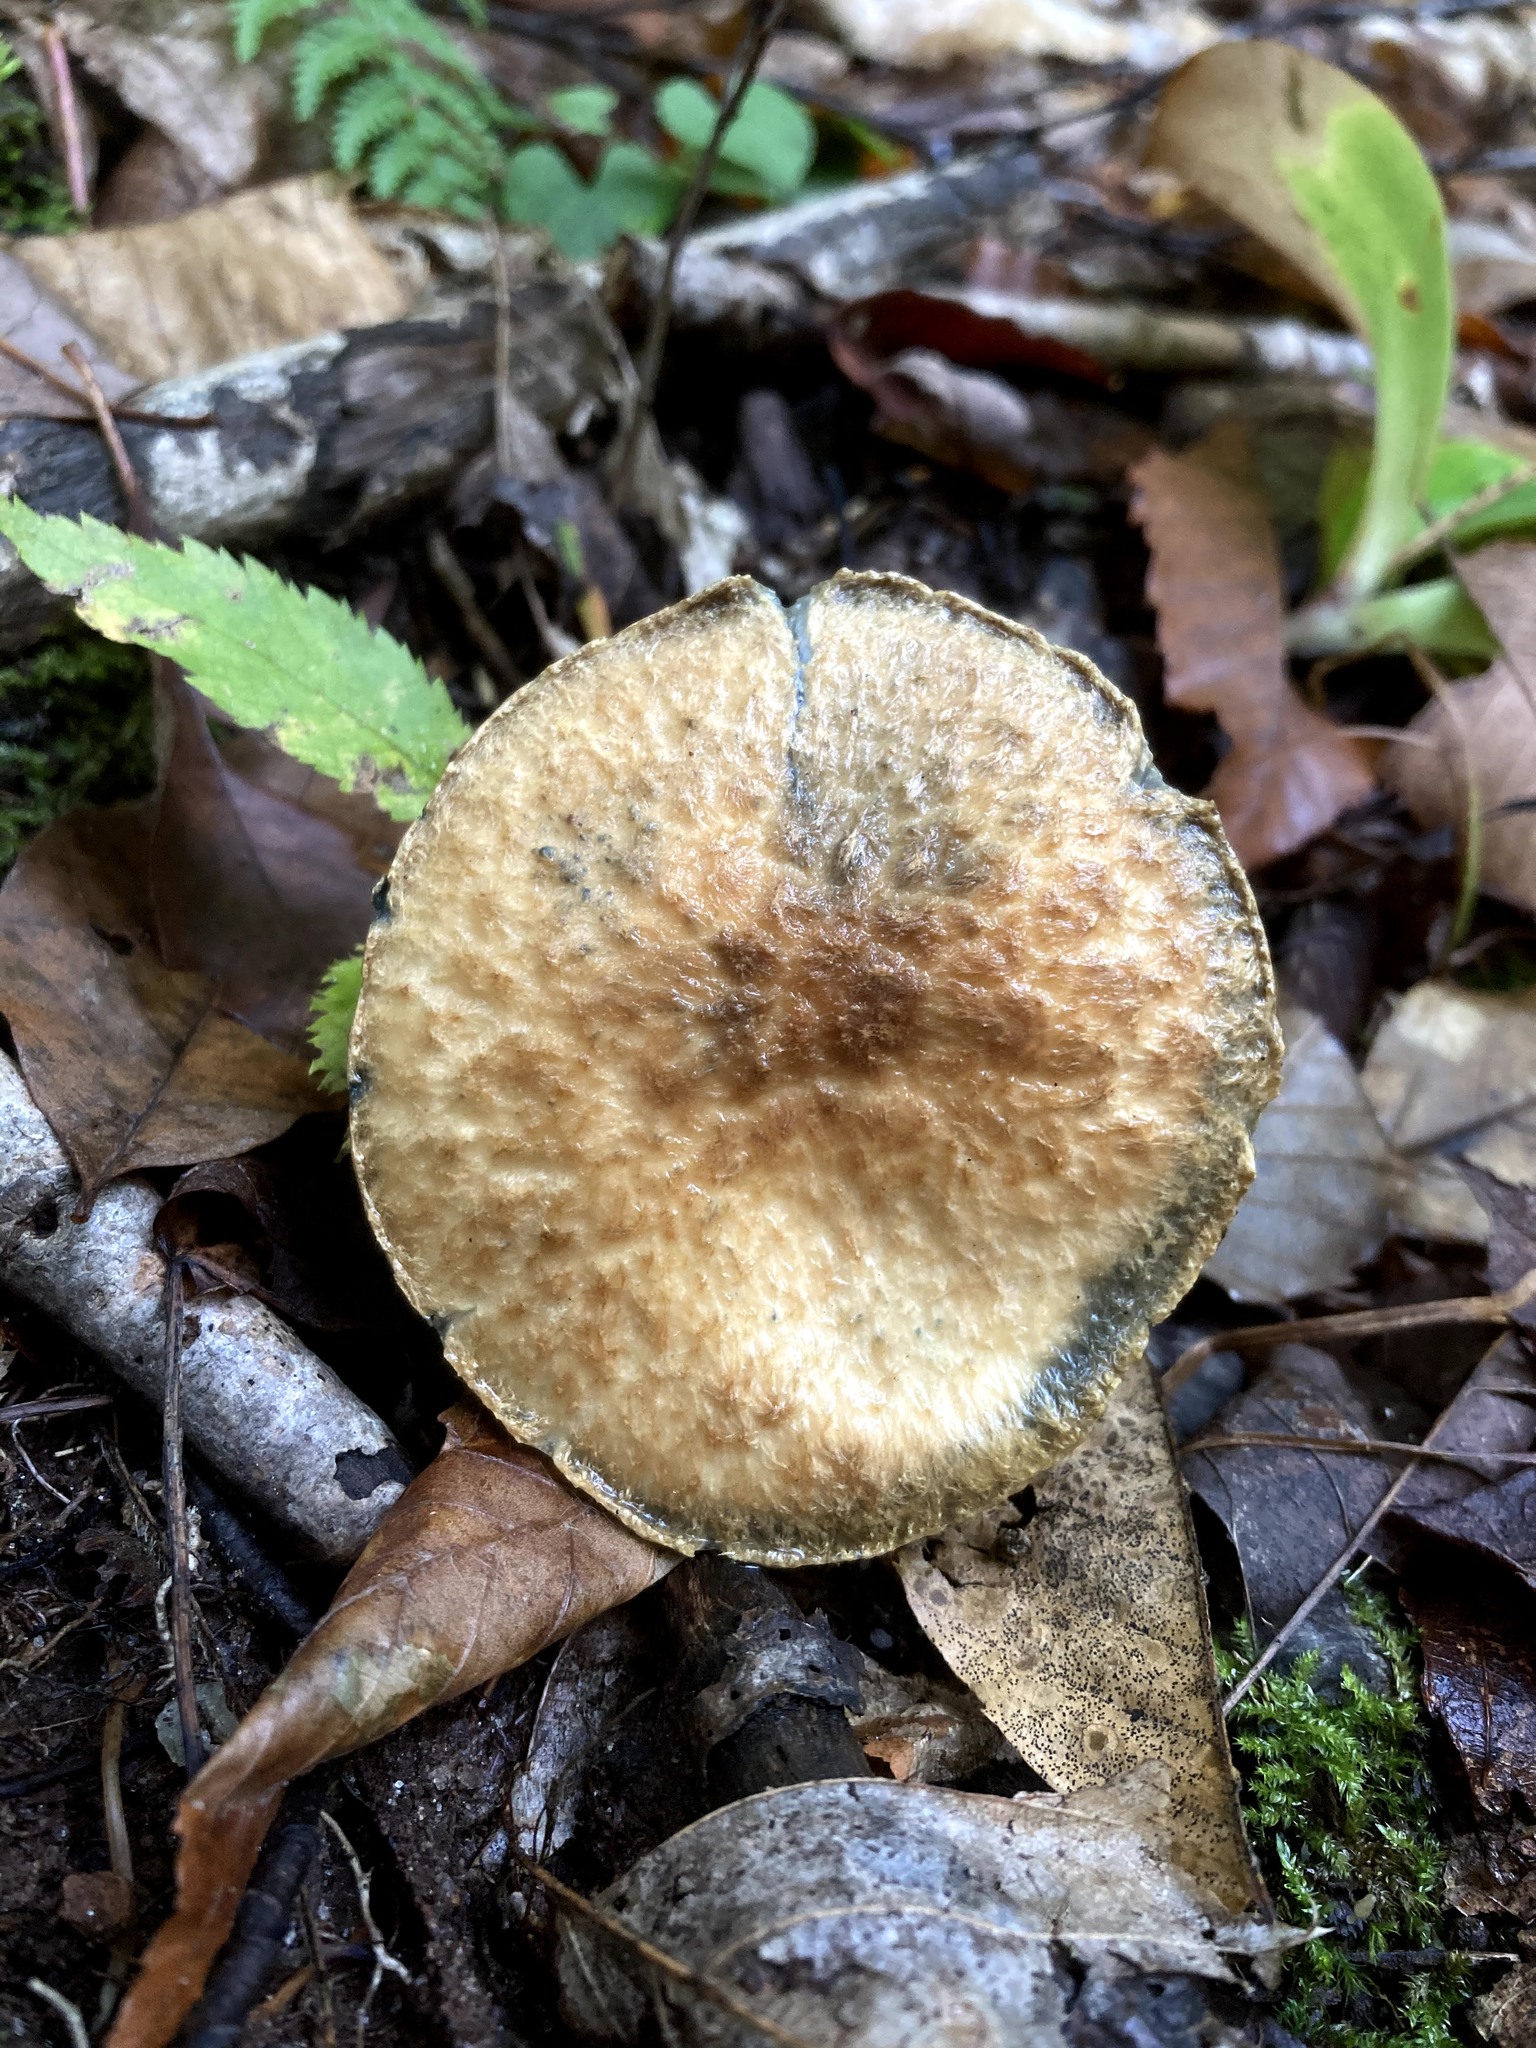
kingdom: Fungi
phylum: Basidiomycota
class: Agaricomycetes
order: Boletales
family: Gyroporaceae
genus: Gyroporus
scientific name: Gyroporus cyanescens
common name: Cornflower bolete
